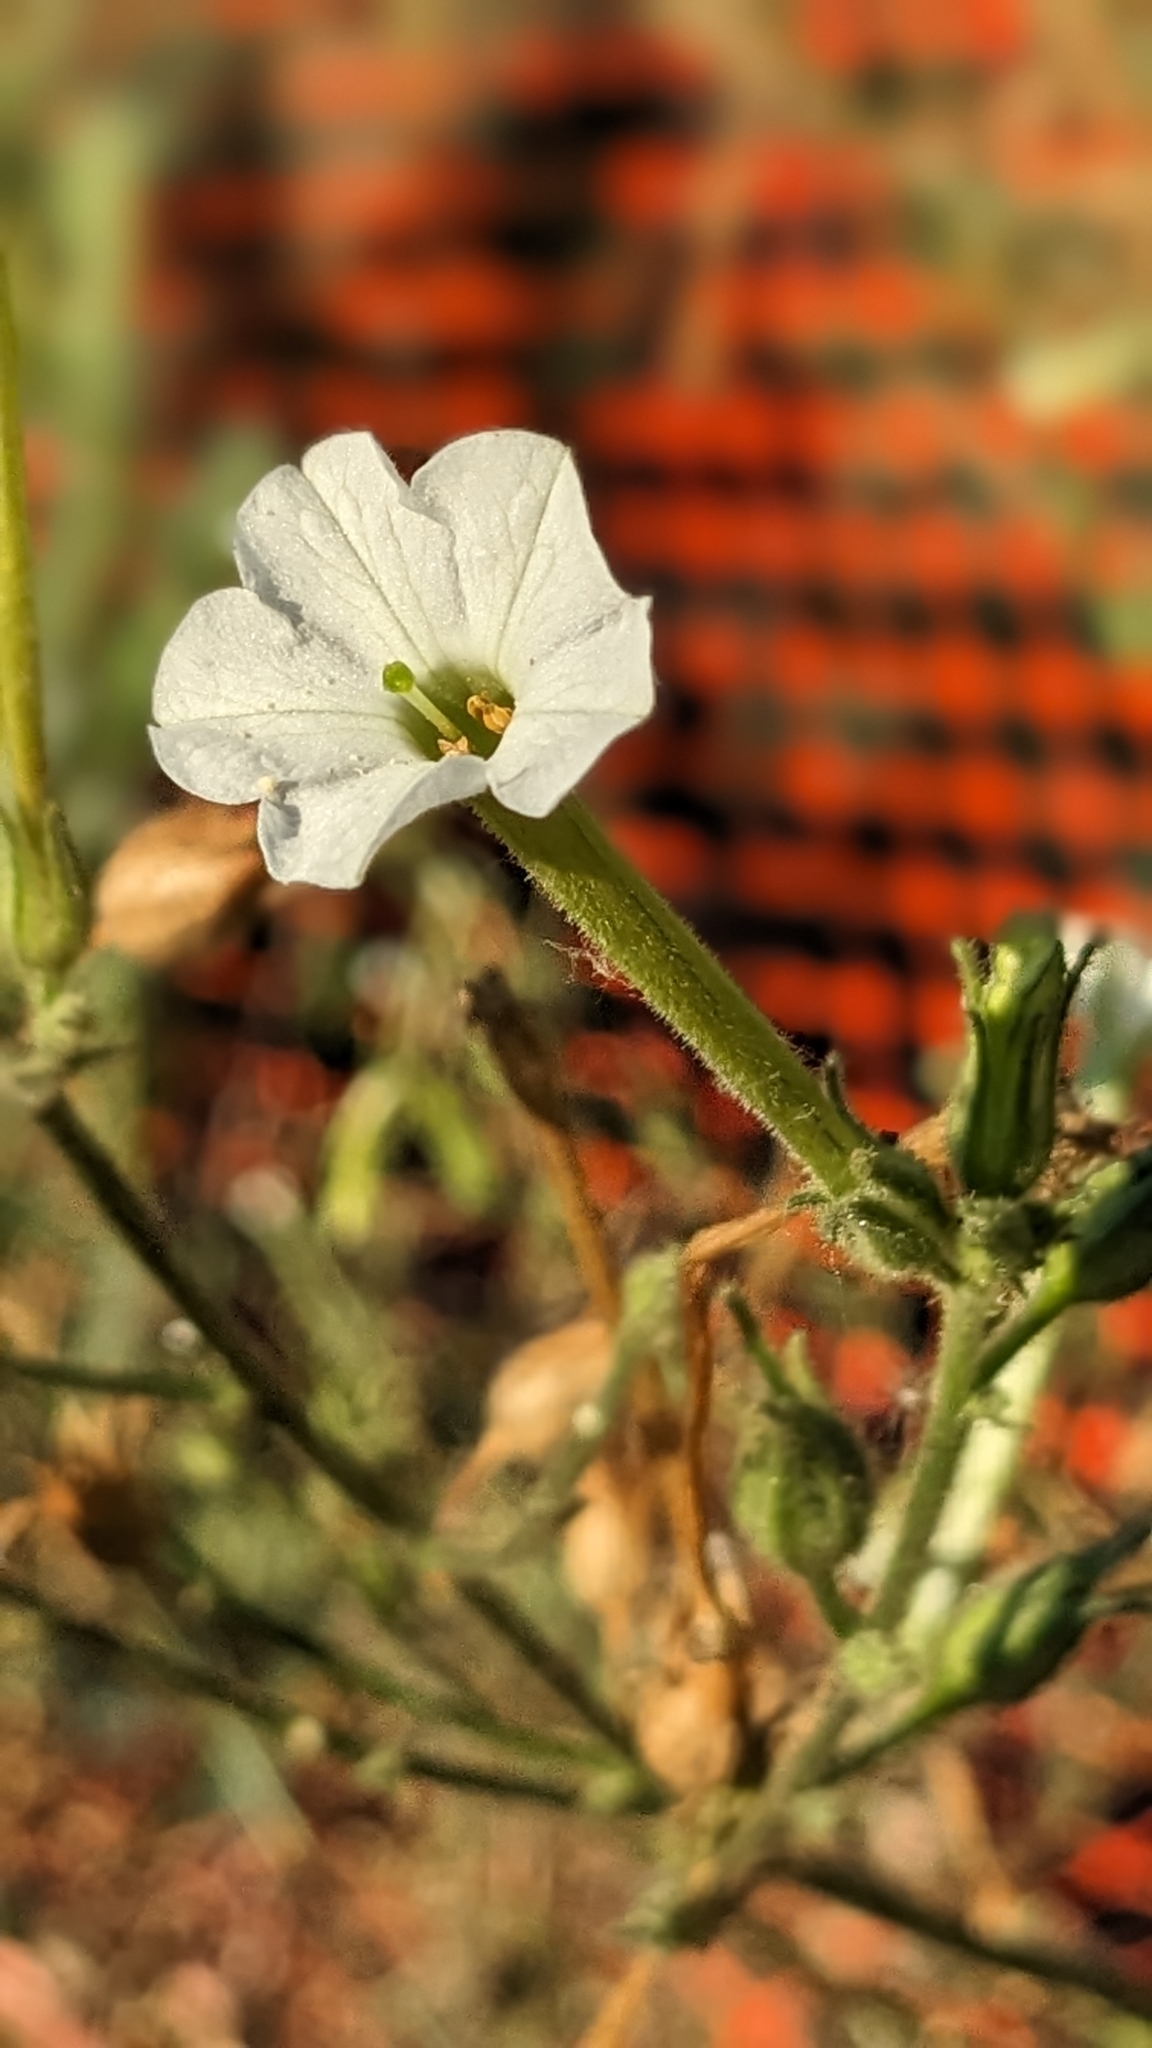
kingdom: Plantae
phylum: Tracheophyta
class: Magnoliopsida
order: Solanales
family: Solanaceae
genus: Nicotiana
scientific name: Nicotiana acuminata
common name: Manyflower tobacco
